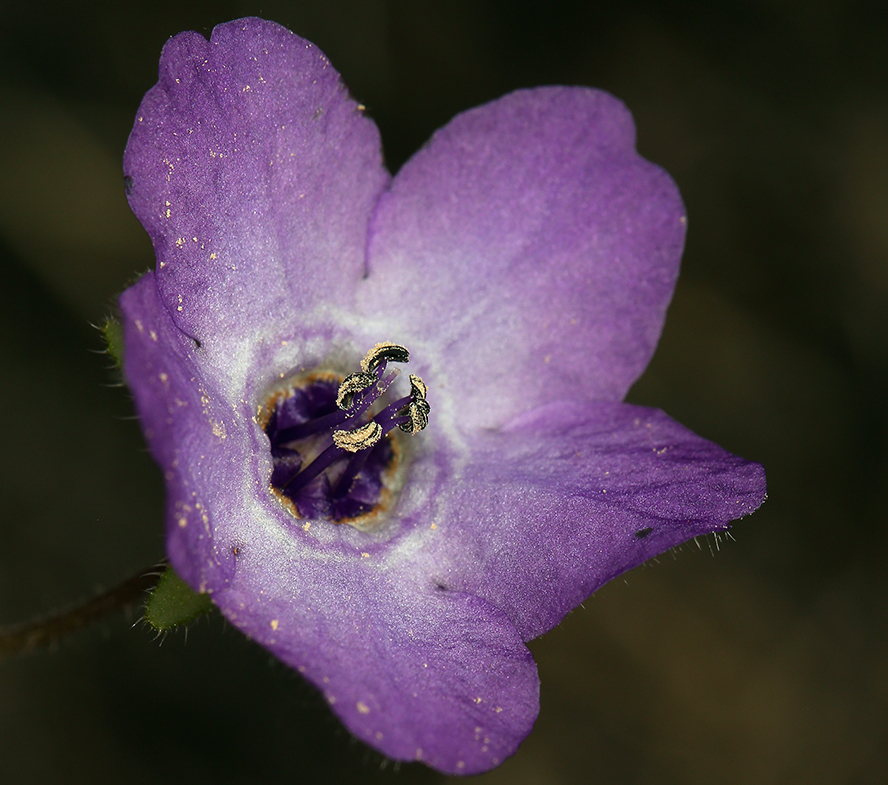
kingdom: Plantae
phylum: Tracheophyta
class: Magnoliopsida
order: Boraginales
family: Hydrophyllaceae
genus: Pholistoma
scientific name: Pholistoma auritum
